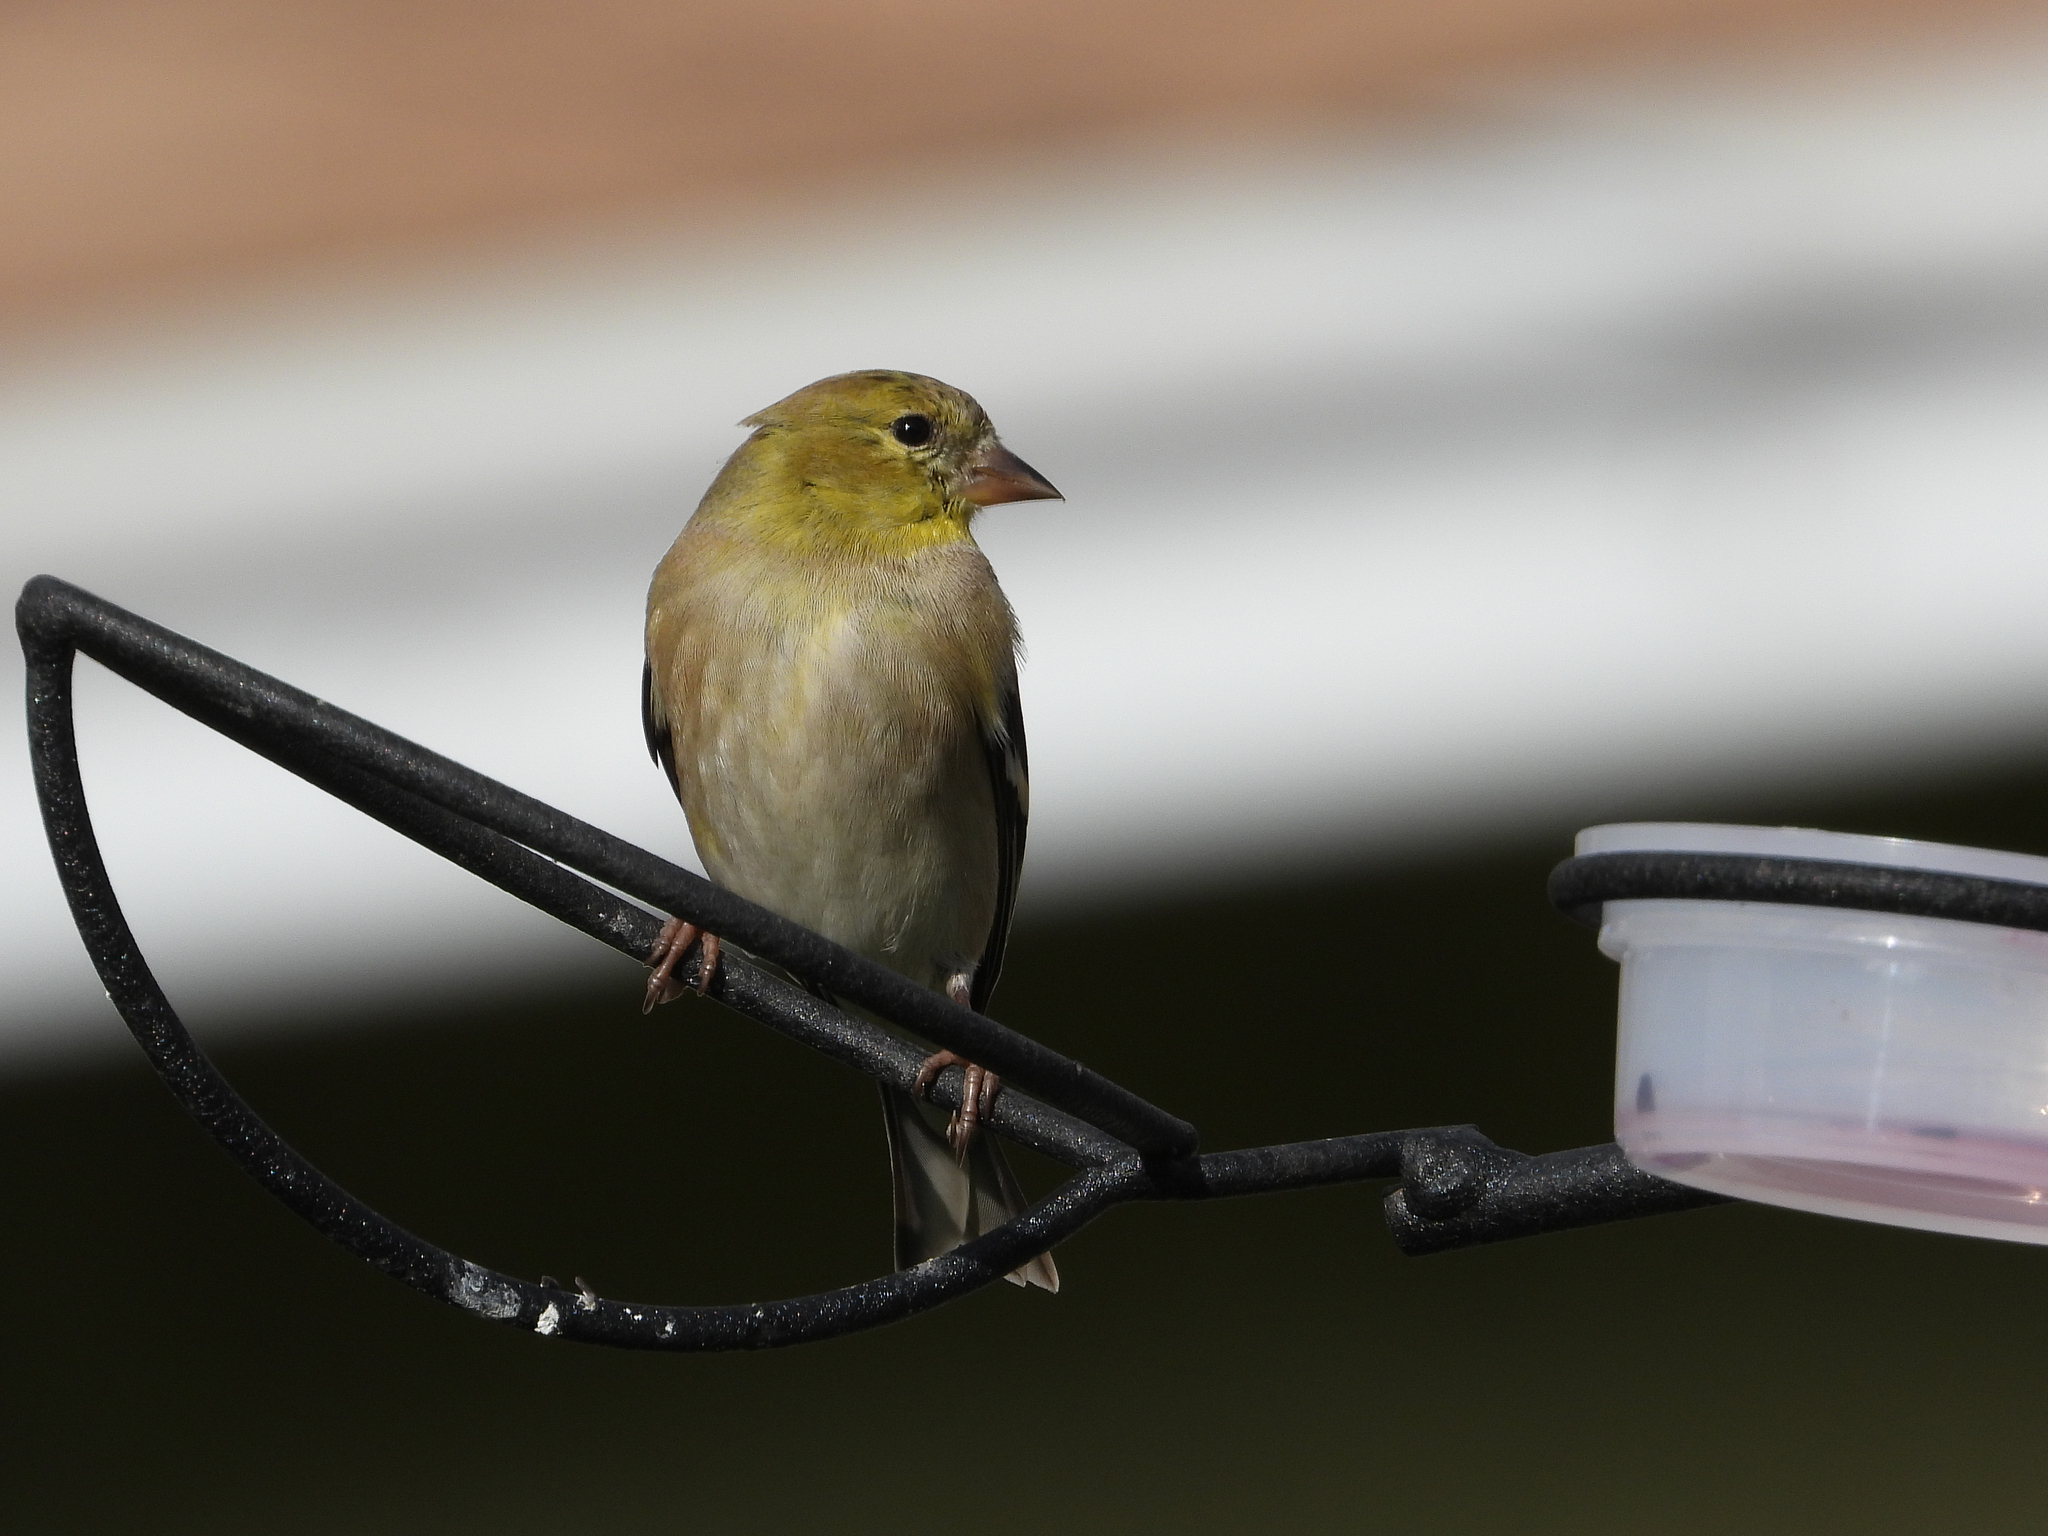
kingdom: Animalia
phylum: Chordata
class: Aves
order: Passeriformes
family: Fringillidae
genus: Spinus
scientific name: Spinus tristis
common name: American goldfinch
